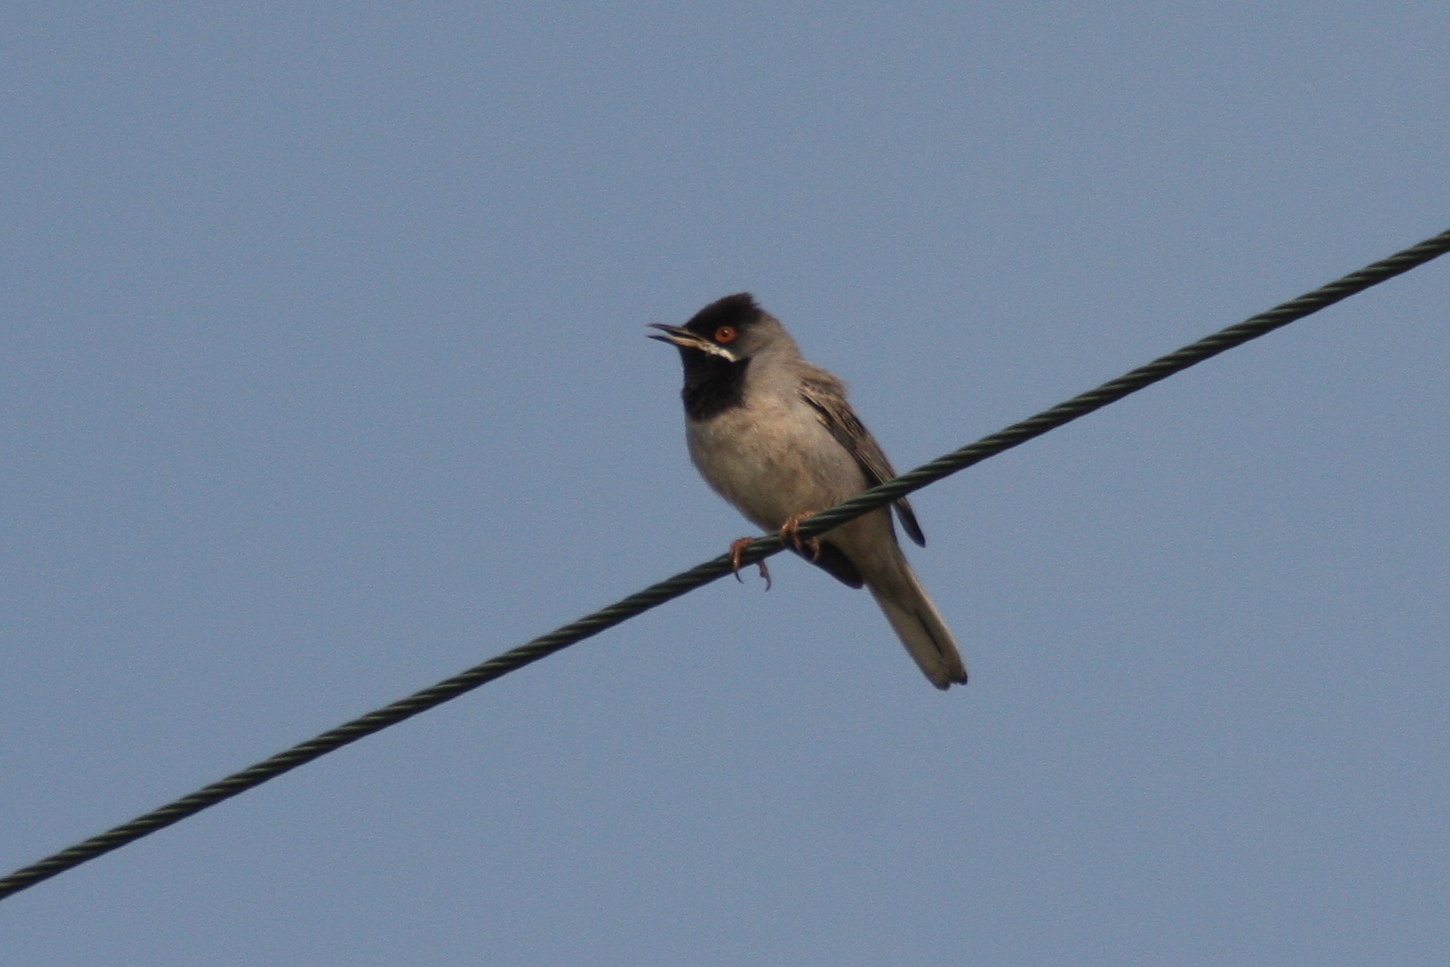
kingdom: Animalia
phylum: Chordata
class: Aves
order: Passeriformes
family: Sylviidae
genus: Sylvia
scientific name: Sylvia ruppeli
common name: Rüppell's warbler
